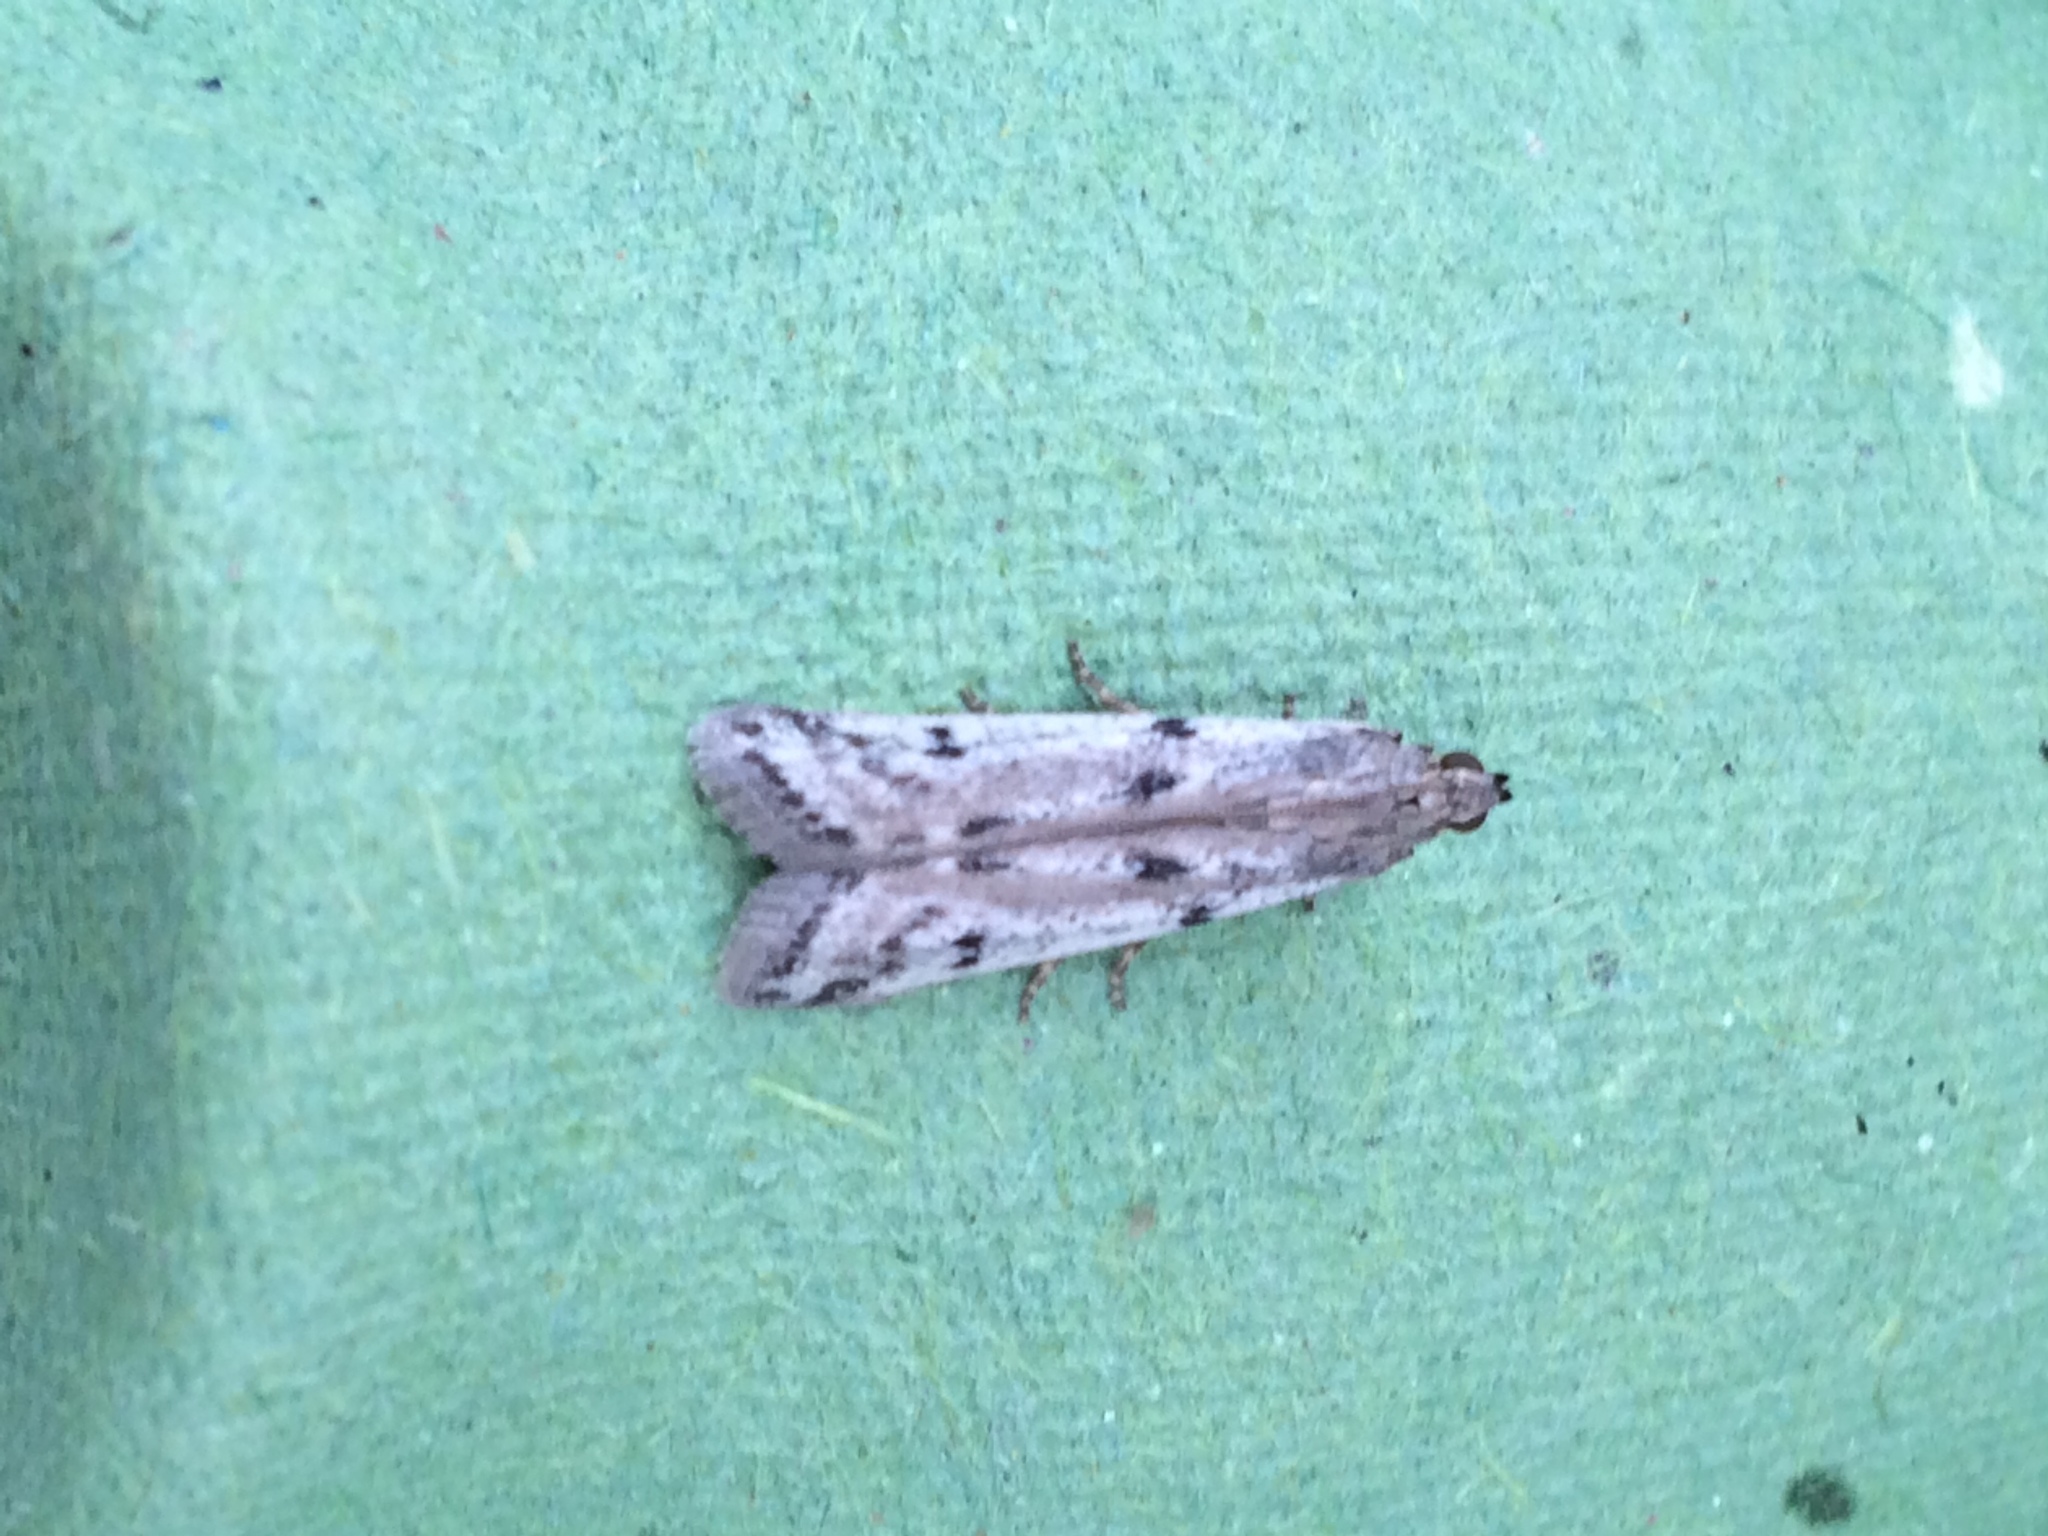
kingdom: Animalia
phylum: Arthropoda
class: Insecta
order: Lepidoptera
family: Pyralidae
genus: Phycitodes
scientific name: Phycitodes binaevella
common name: Ermine knot-horn
